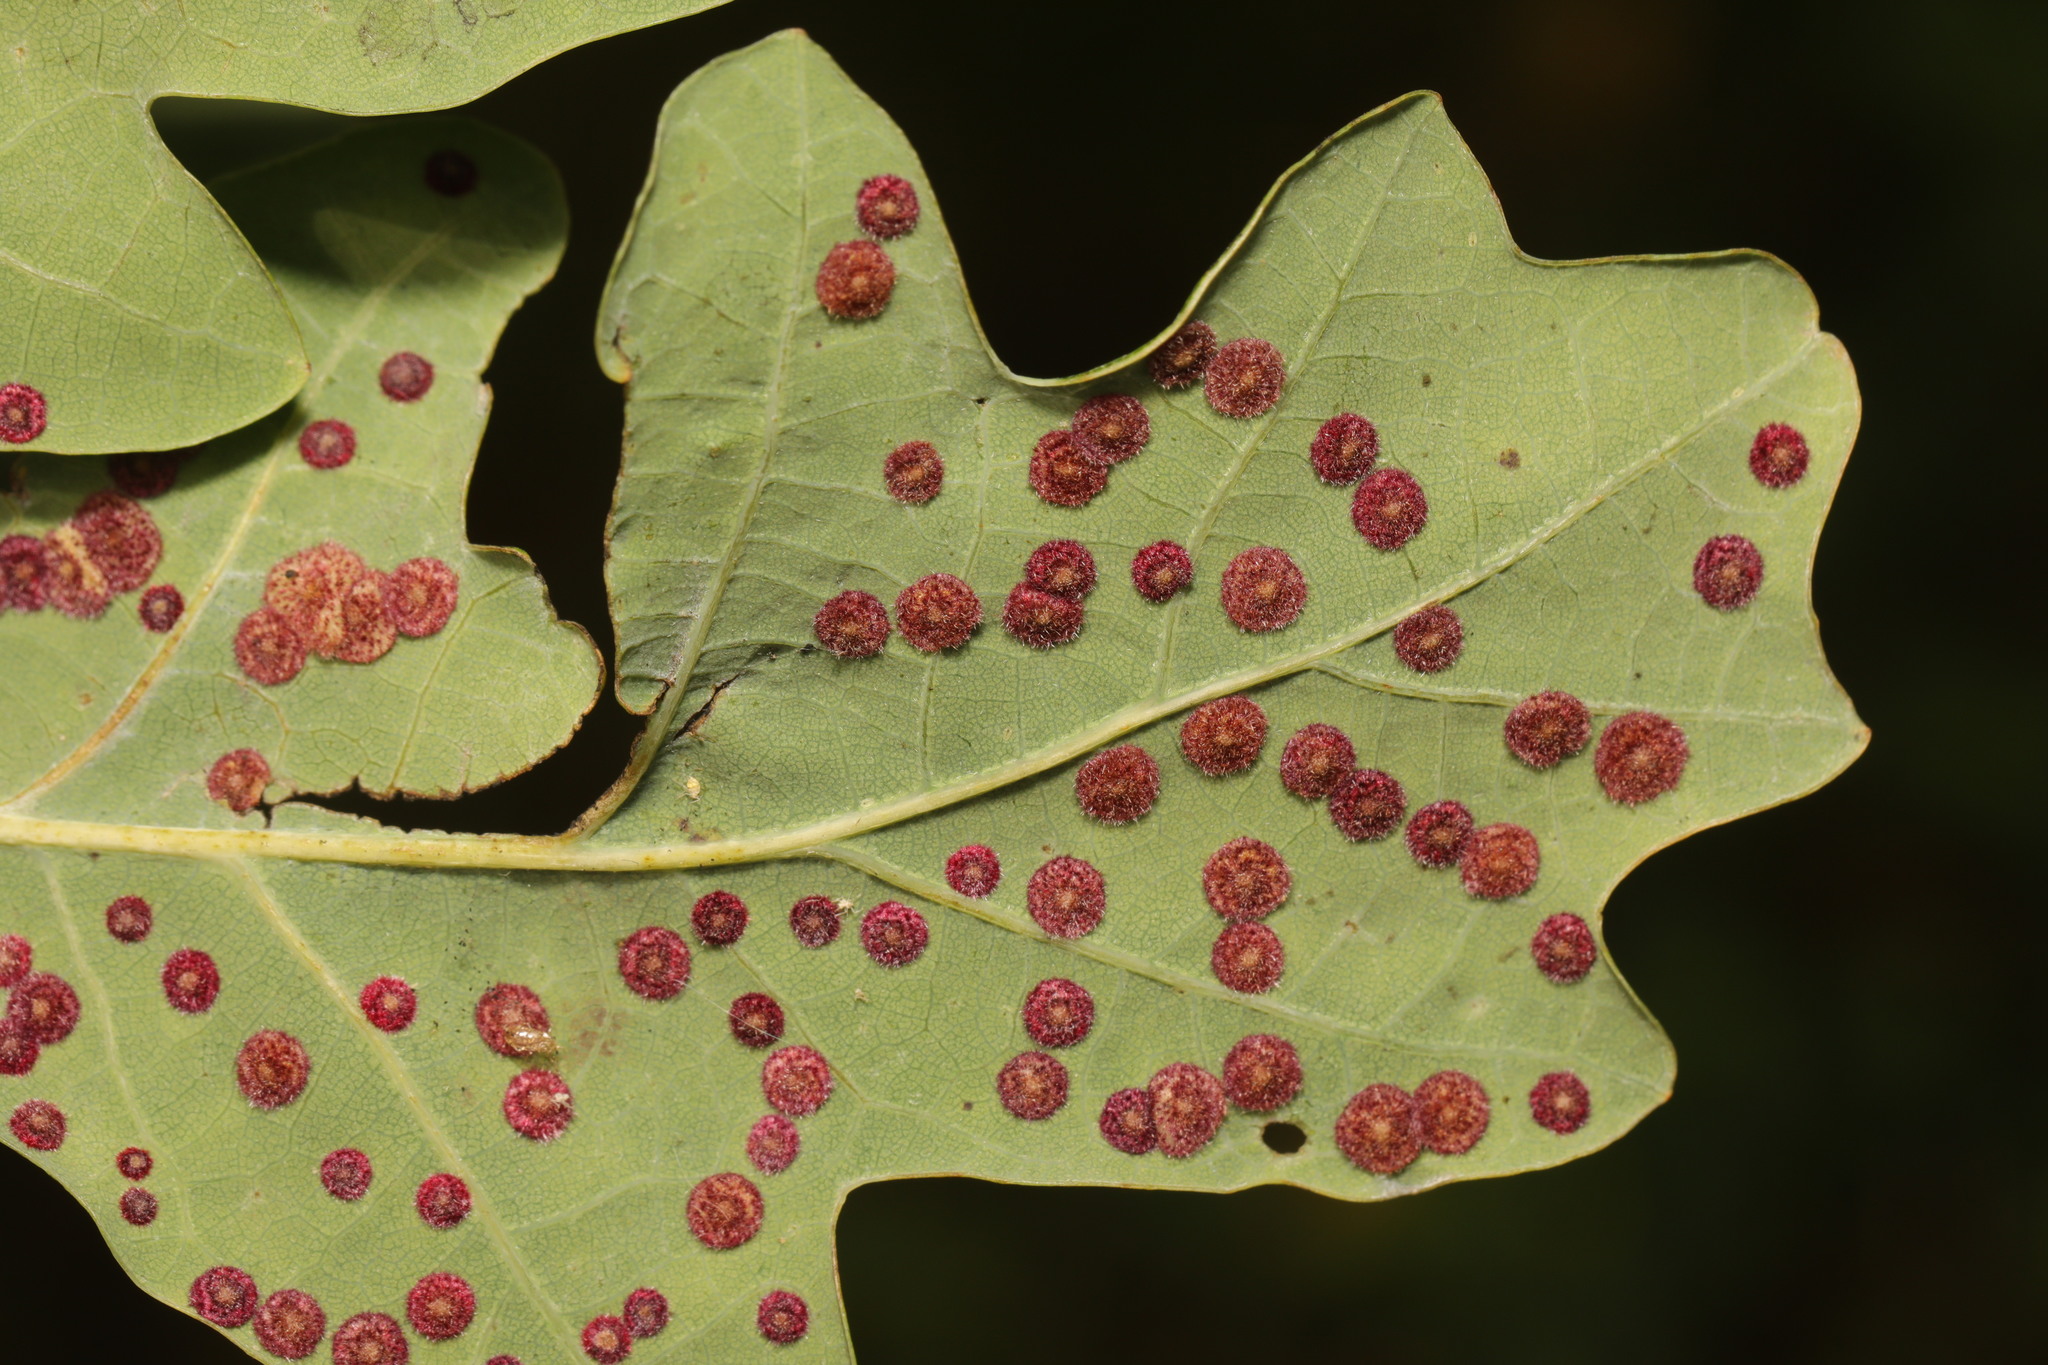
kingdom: Animalia
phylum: Arthropoda
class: Insecta
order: Hymenoptera
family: Cynipidae
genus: Neuroterus
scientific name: Neuroterus quercusbaccarum
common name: Common spangle gall
